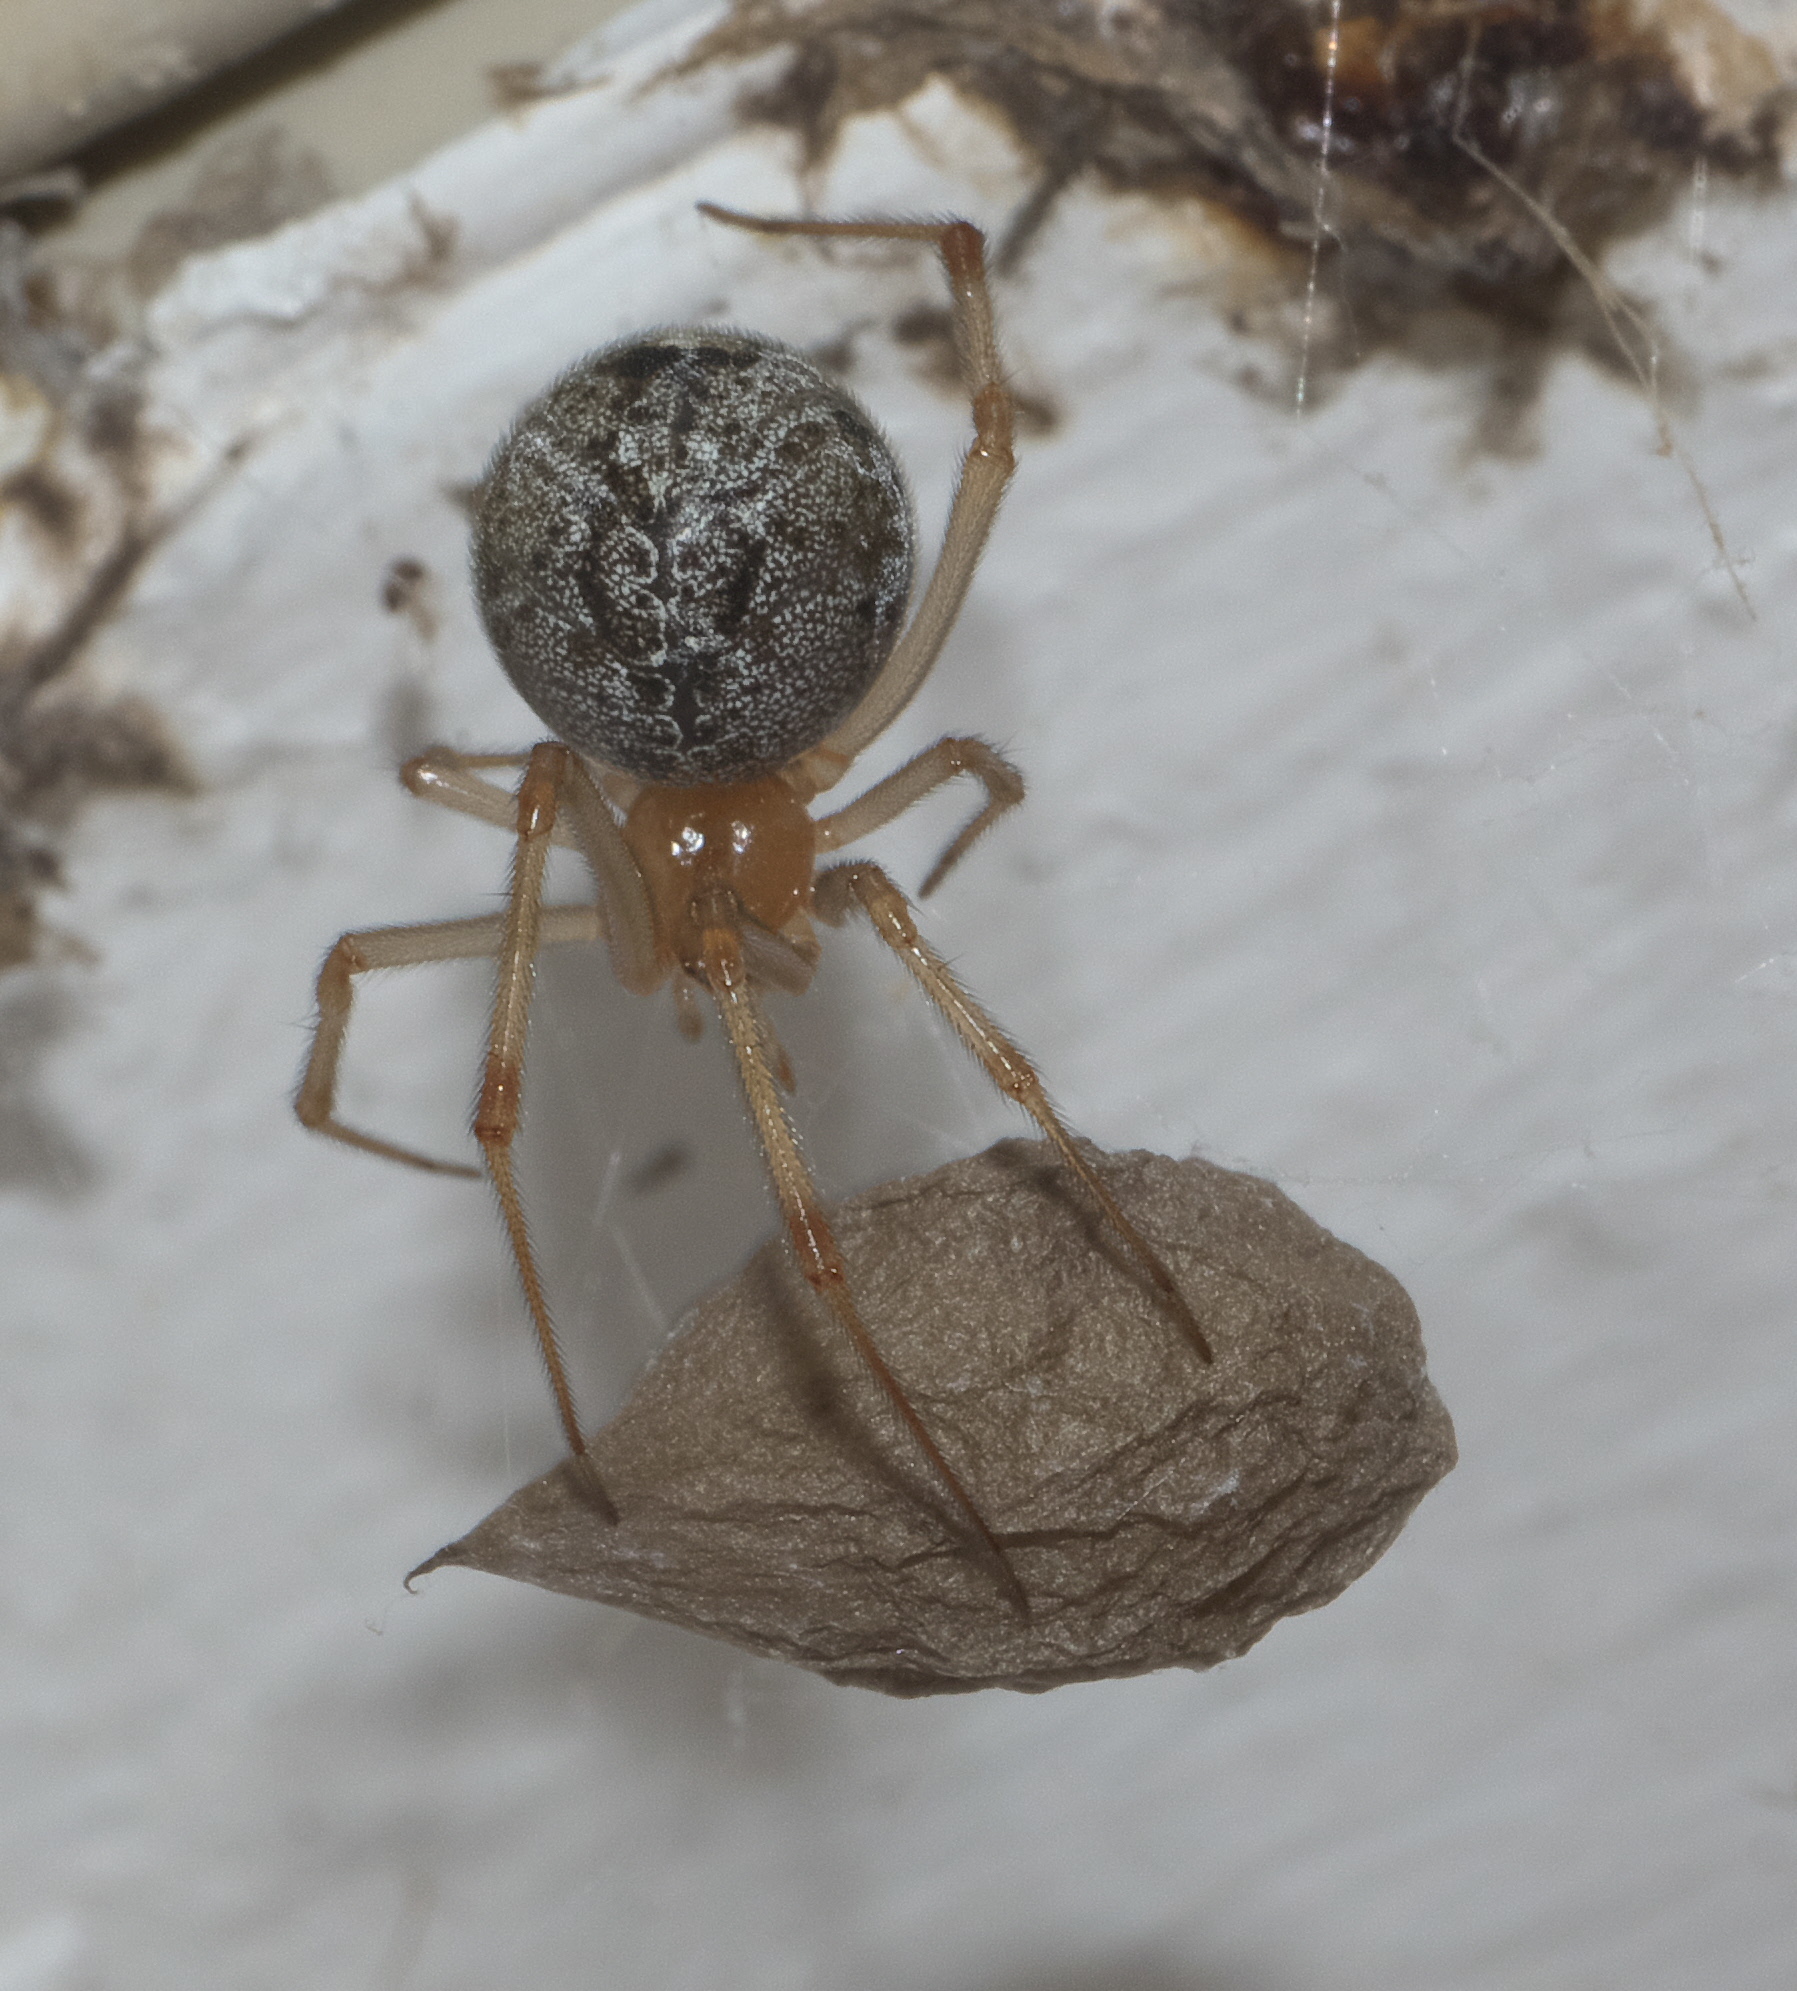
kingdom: Animalia
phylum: Arthropoda
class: Arachnida
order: Araneae
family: Theridiidae
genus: Parasteatoda
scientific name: Parasteatoda tepidariorum
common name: Common house spider
